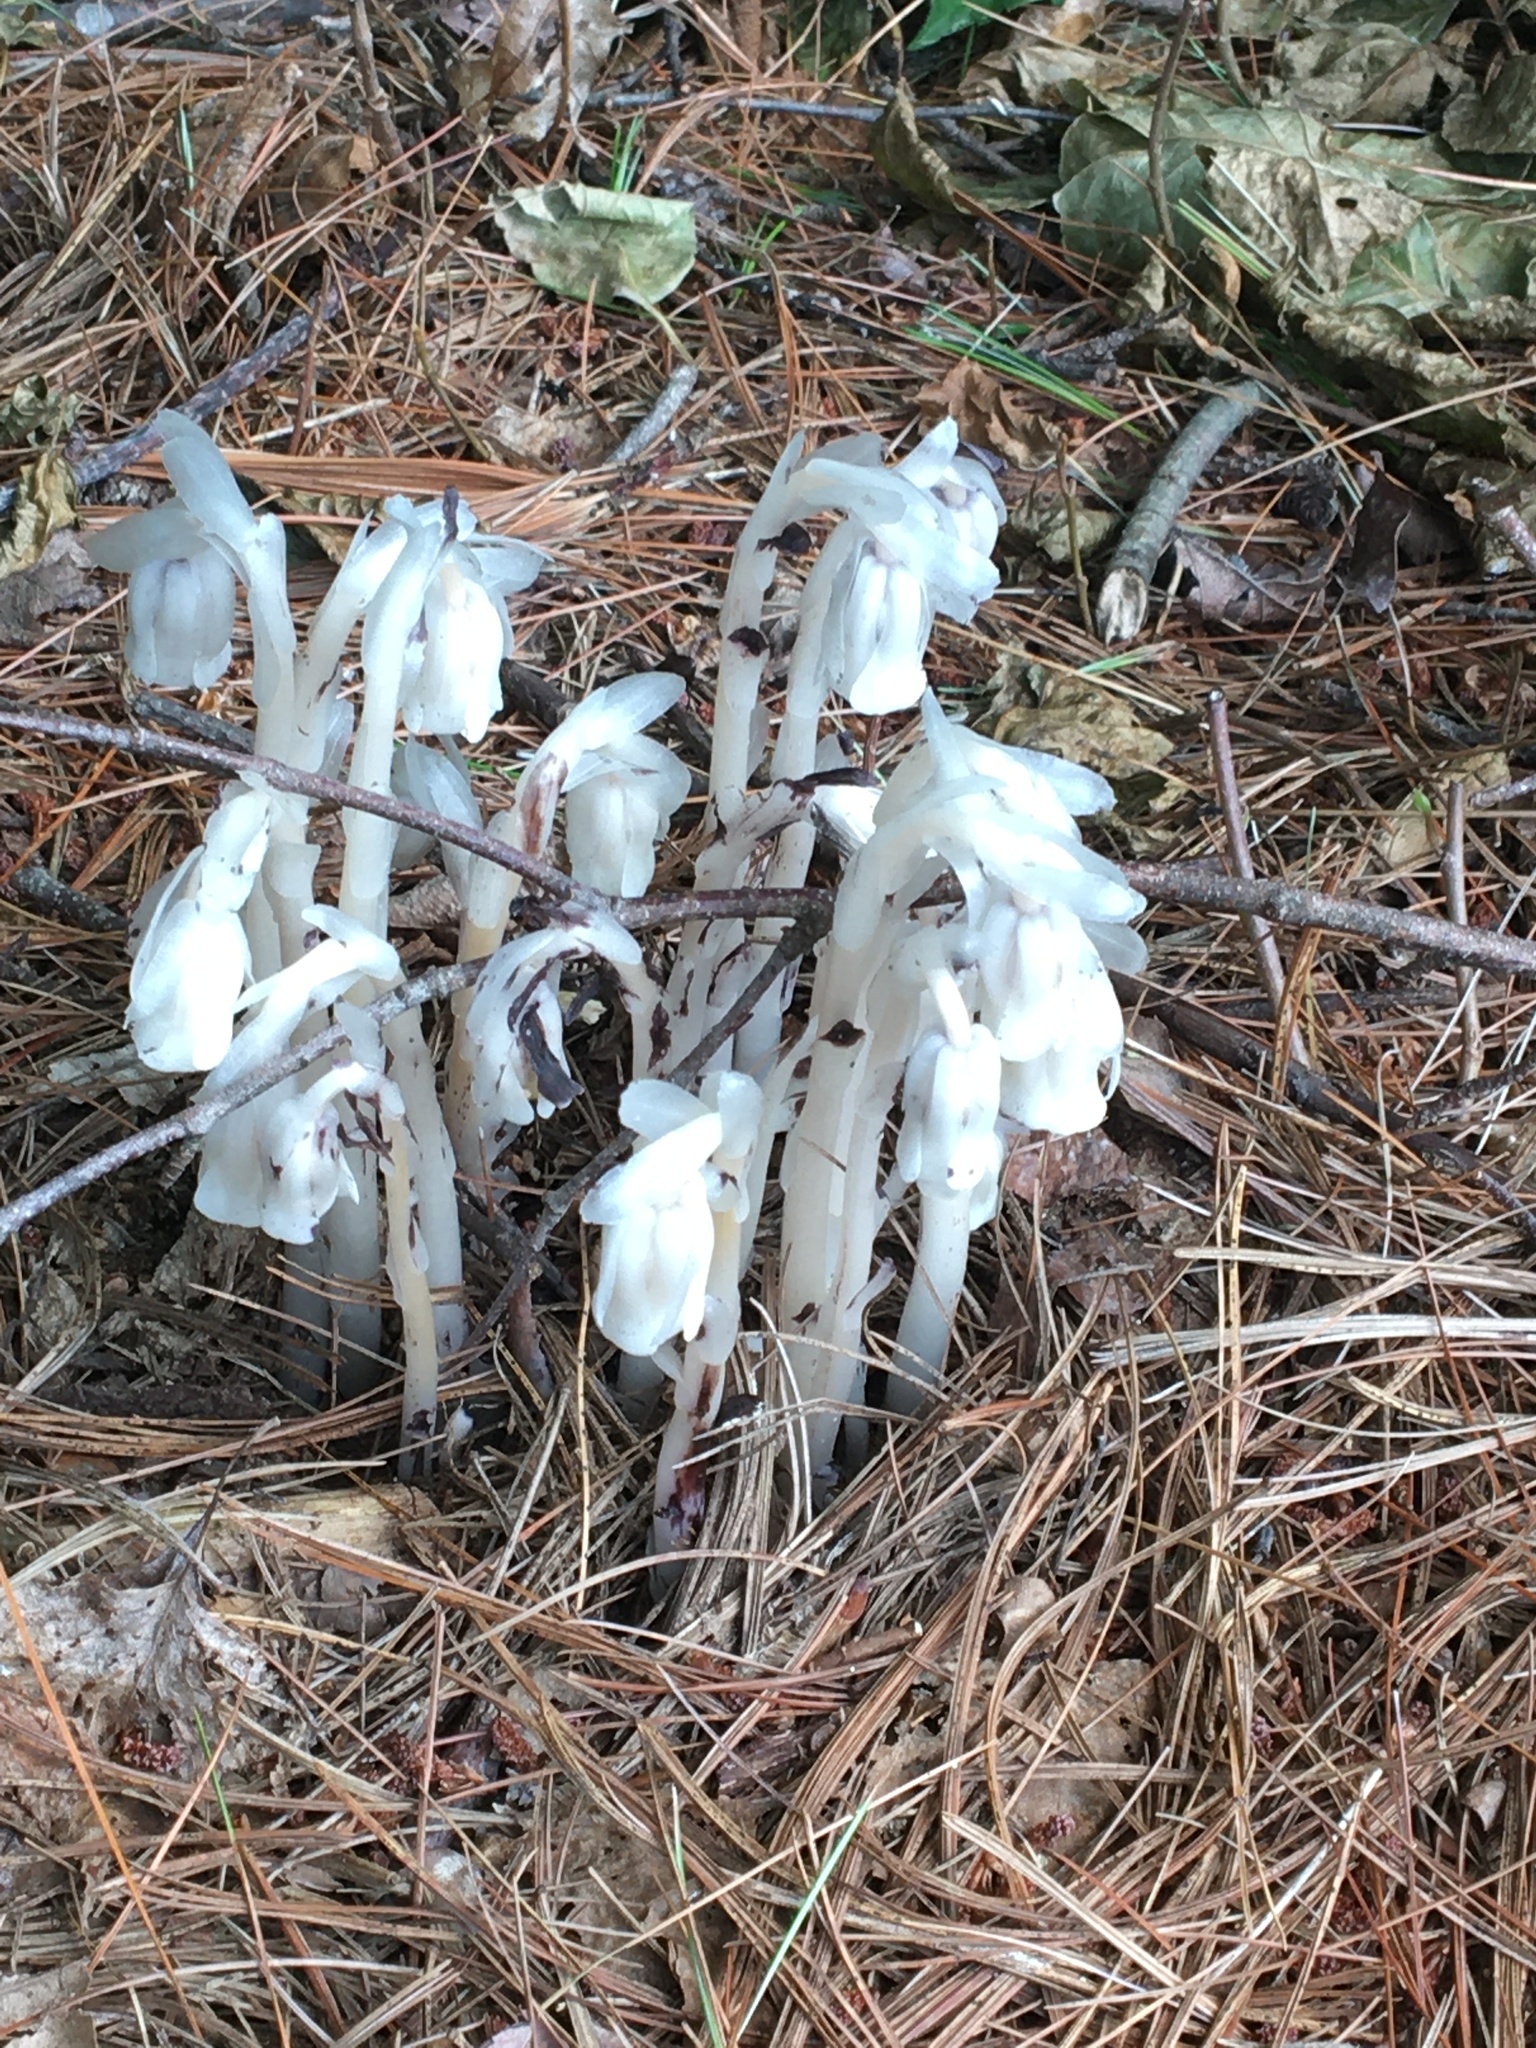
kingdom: Plantae
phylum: Tracheophyta
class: Magnoliopsida
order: Ericales
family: Ericaceae
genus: Monotropa
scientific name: Monotropa uniflora
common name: Convulsion root
